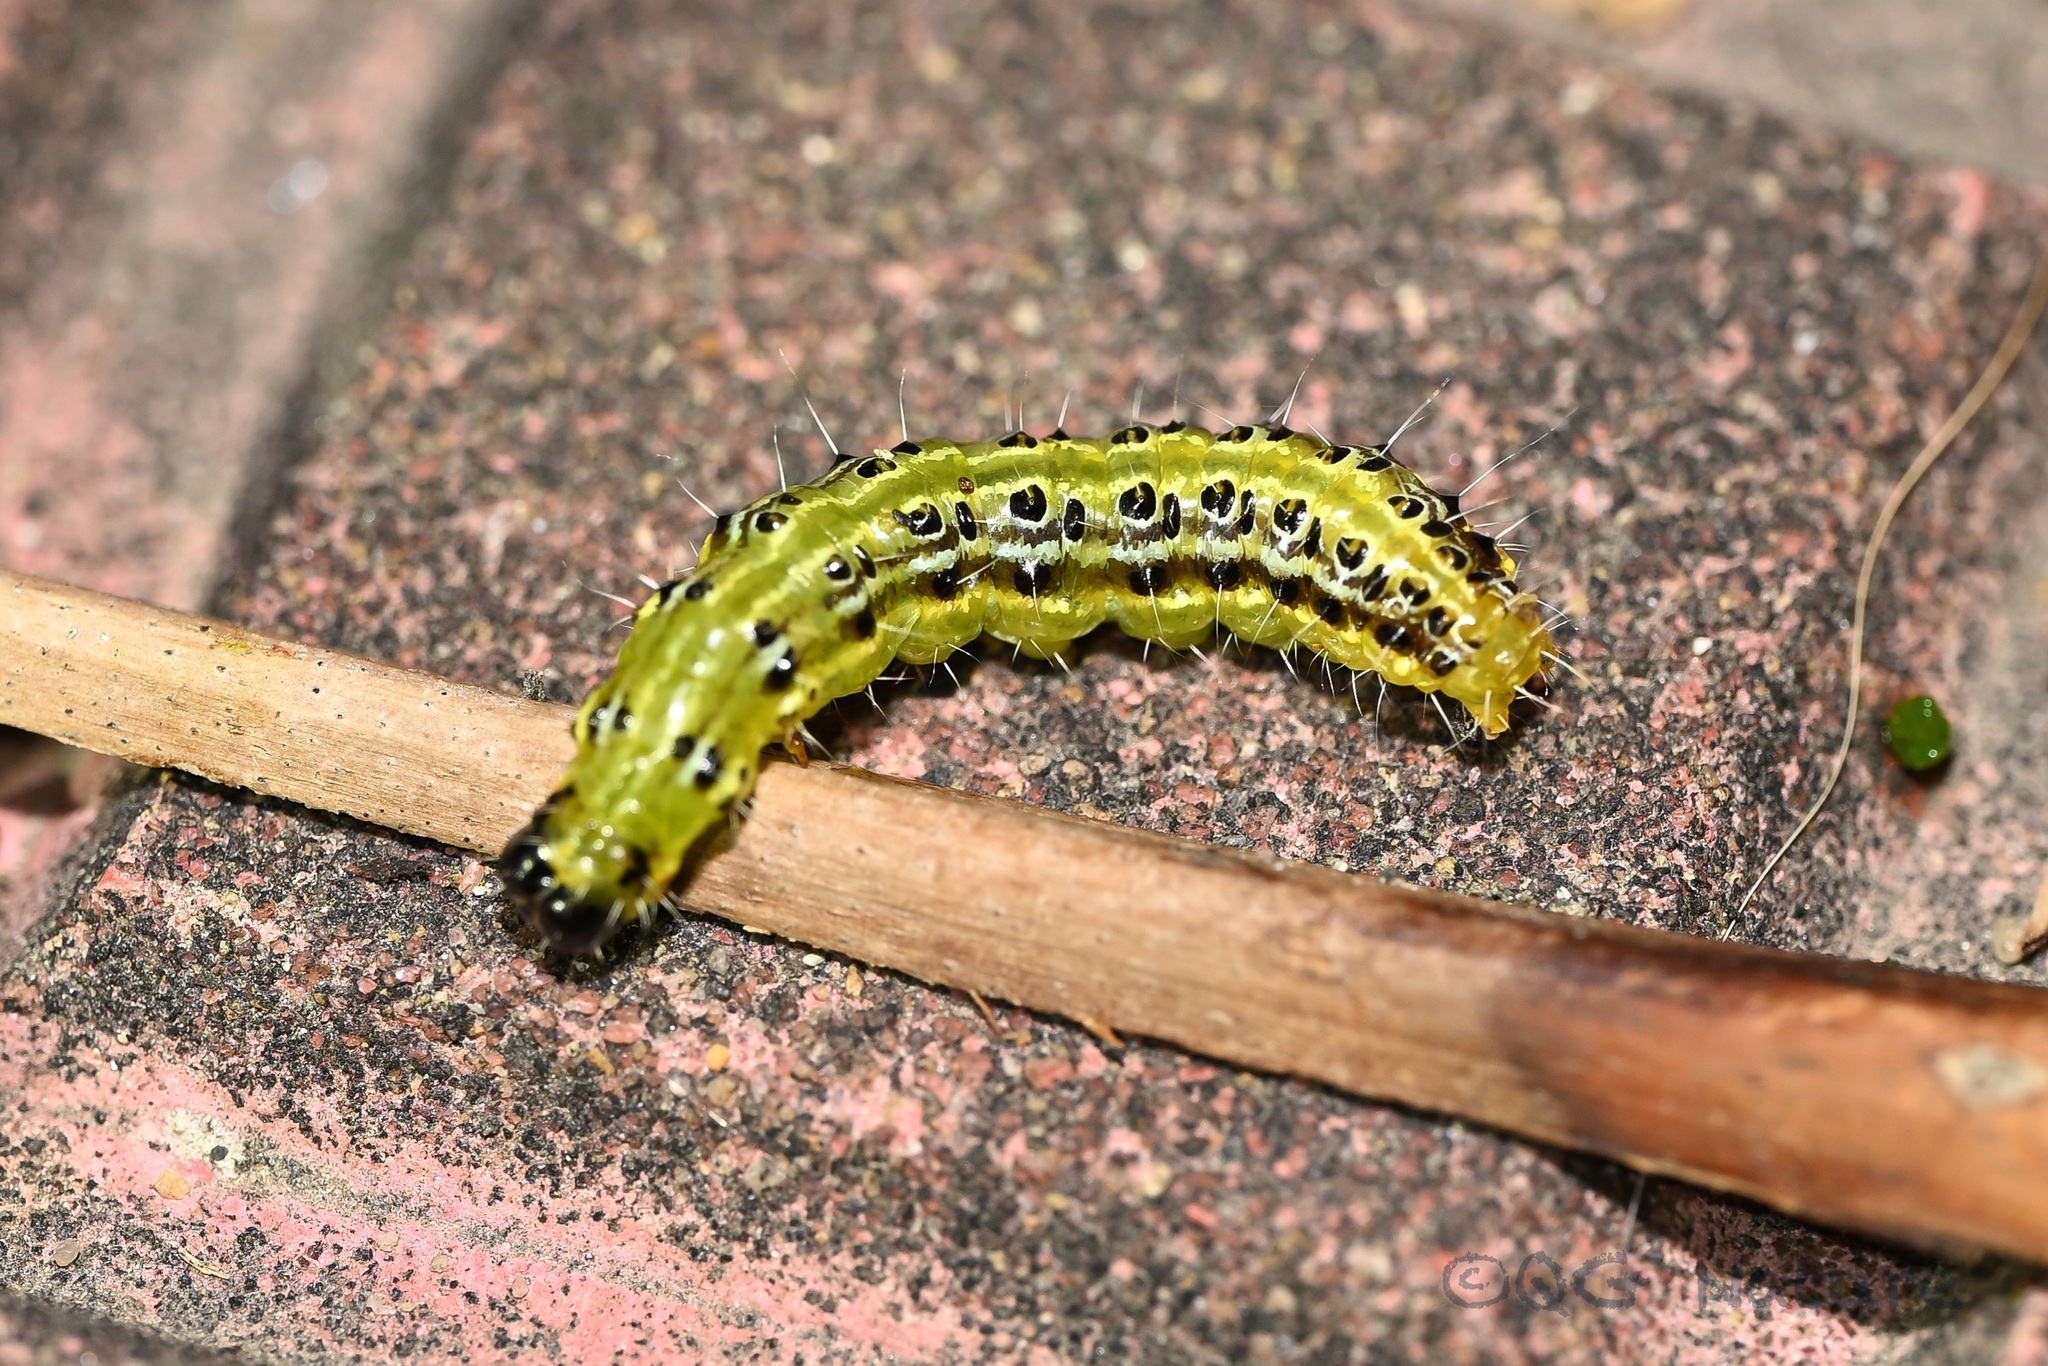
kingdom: Animalia
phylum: Arthropoda
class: Insecta
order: Lepidoptera
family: Crambidae
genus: Cydalima
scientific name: Cydalima perspectalis
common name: Box tree moth
